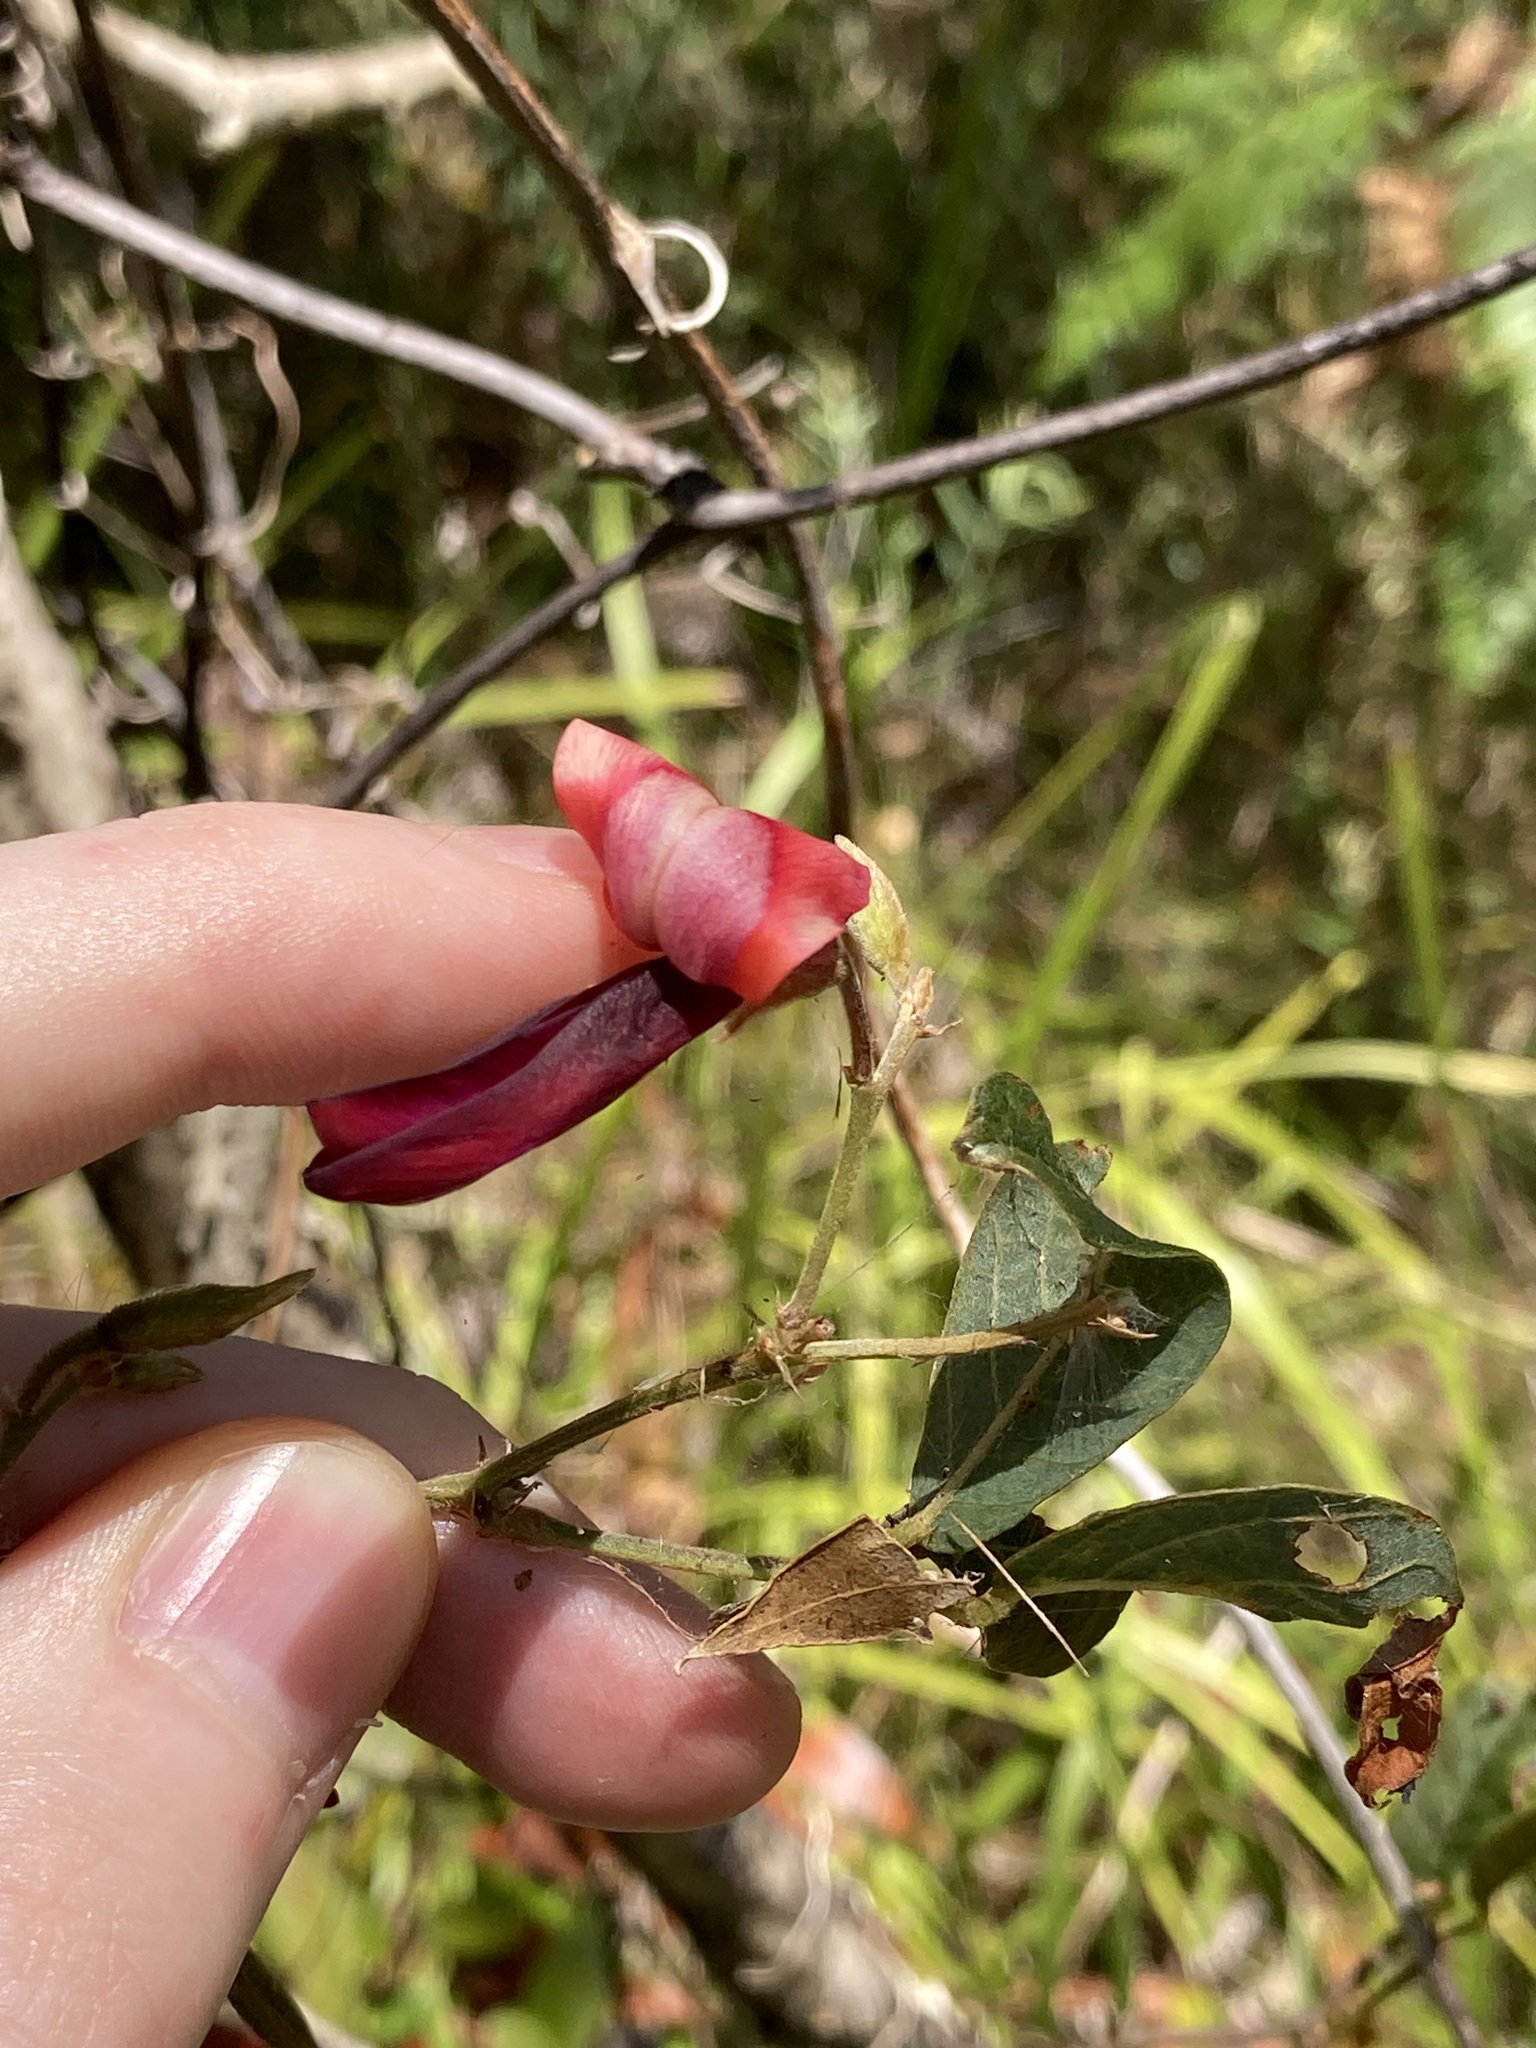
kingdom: Plantae
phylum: Tracheophyta
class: Magnoliopsida
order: Fabales
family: Fabaceae
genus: Kennedia
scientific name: Kennedia rubicunda
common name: Red kennedy-pea
